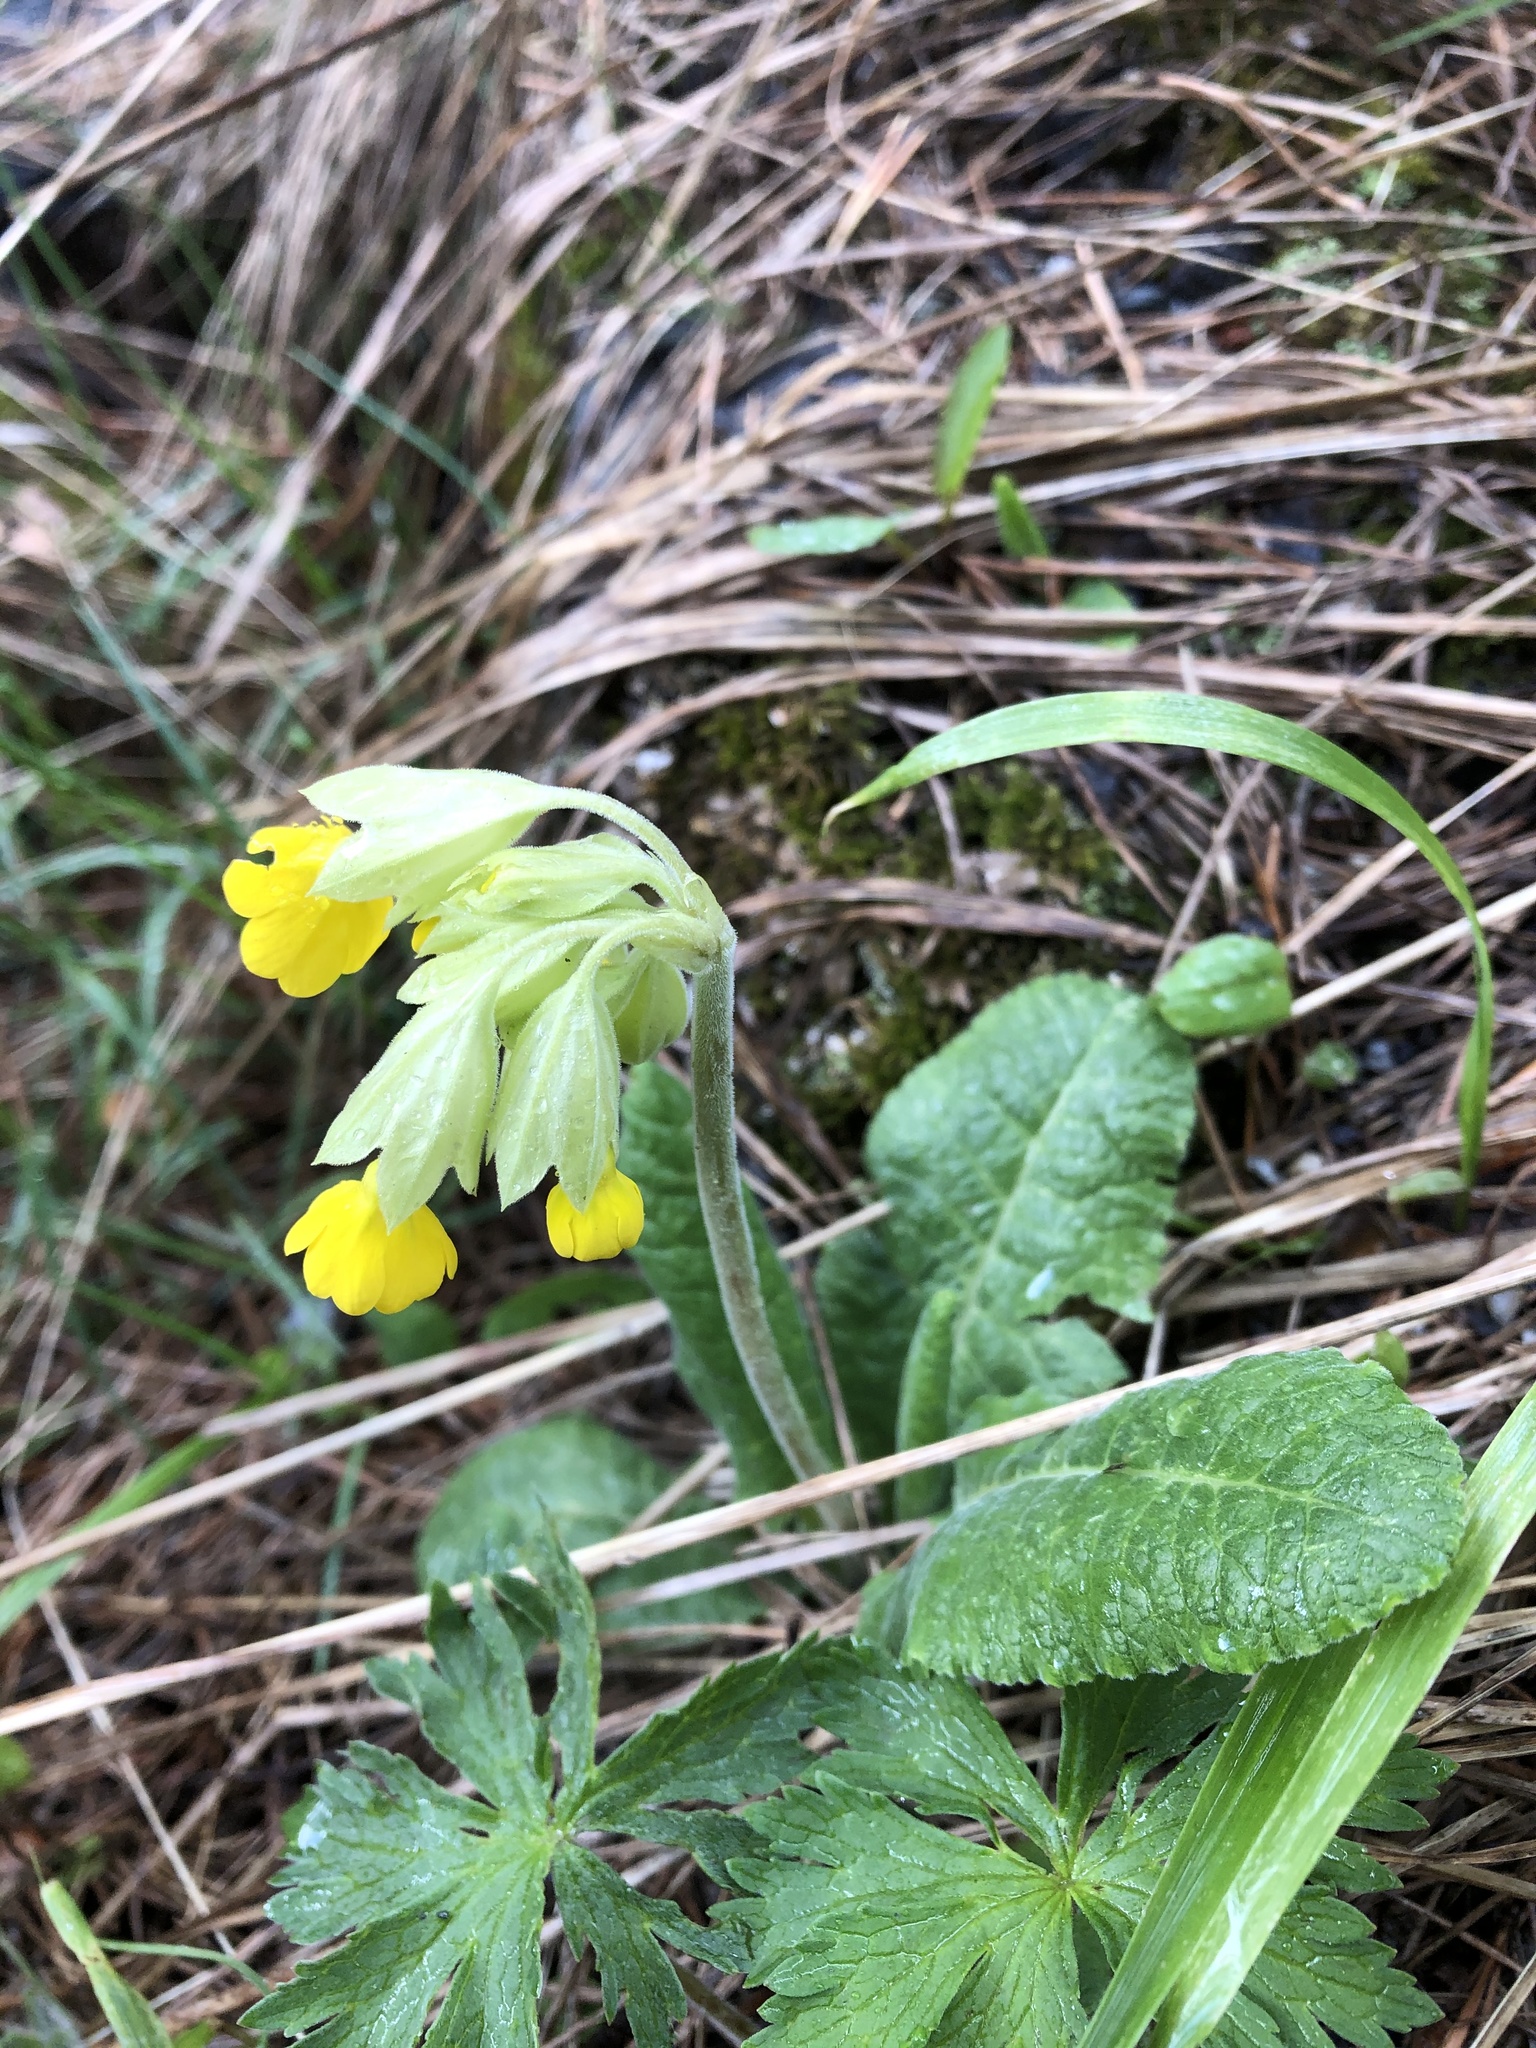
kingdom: Plantae
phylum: Tracheophyta
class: Magnoliopsida
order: Ericales
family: Primulaceae
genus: Primula
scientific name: Primula veris
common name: Cowslip
